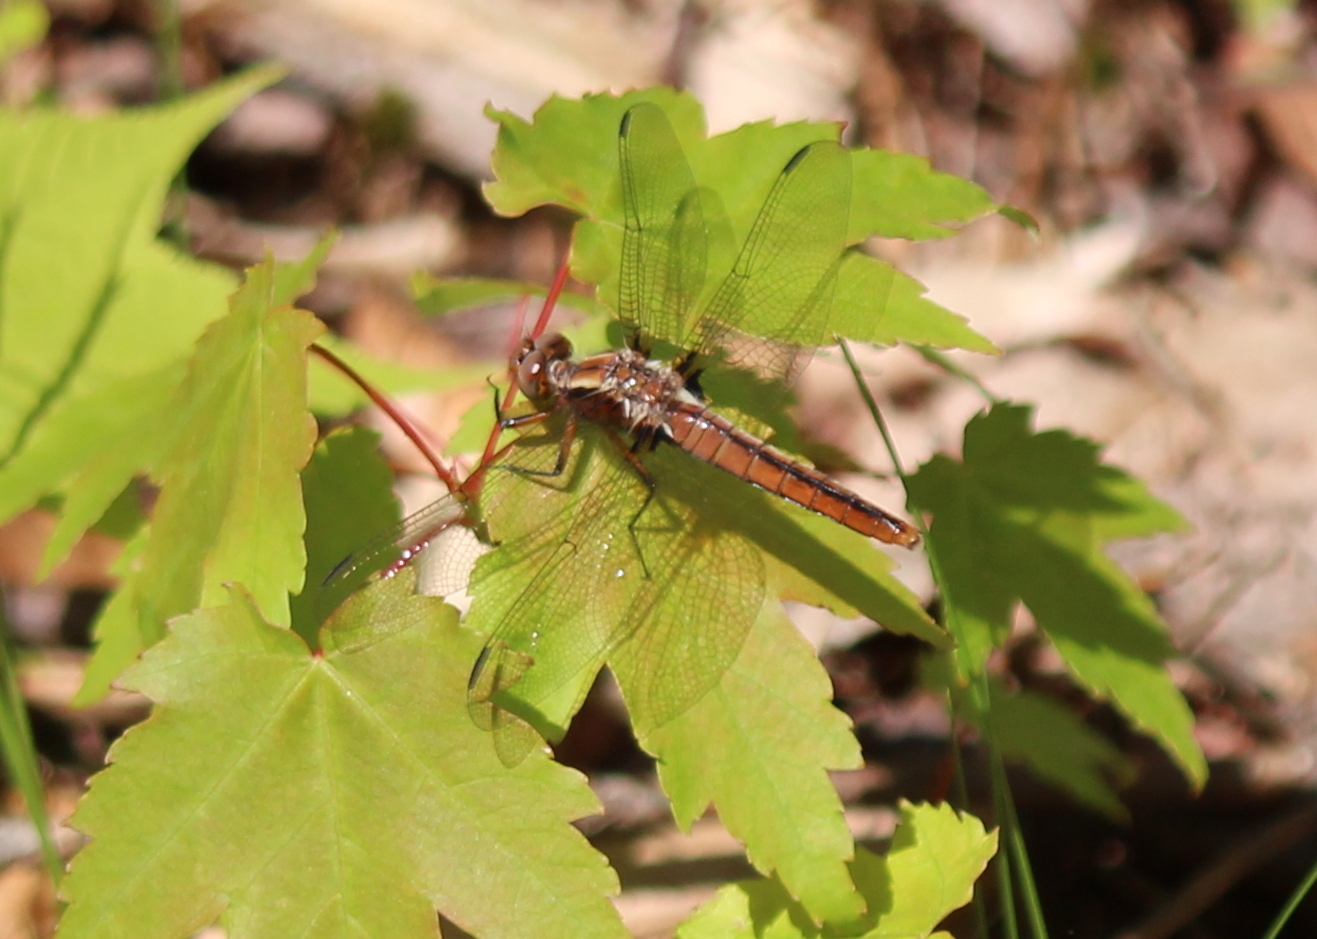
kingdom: Animalia
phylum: Arthropoda
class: Insecta
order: Odonata
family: Libellulidae
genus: Ladona
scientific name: Ladona julia
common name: Chalk-fronted corporal
